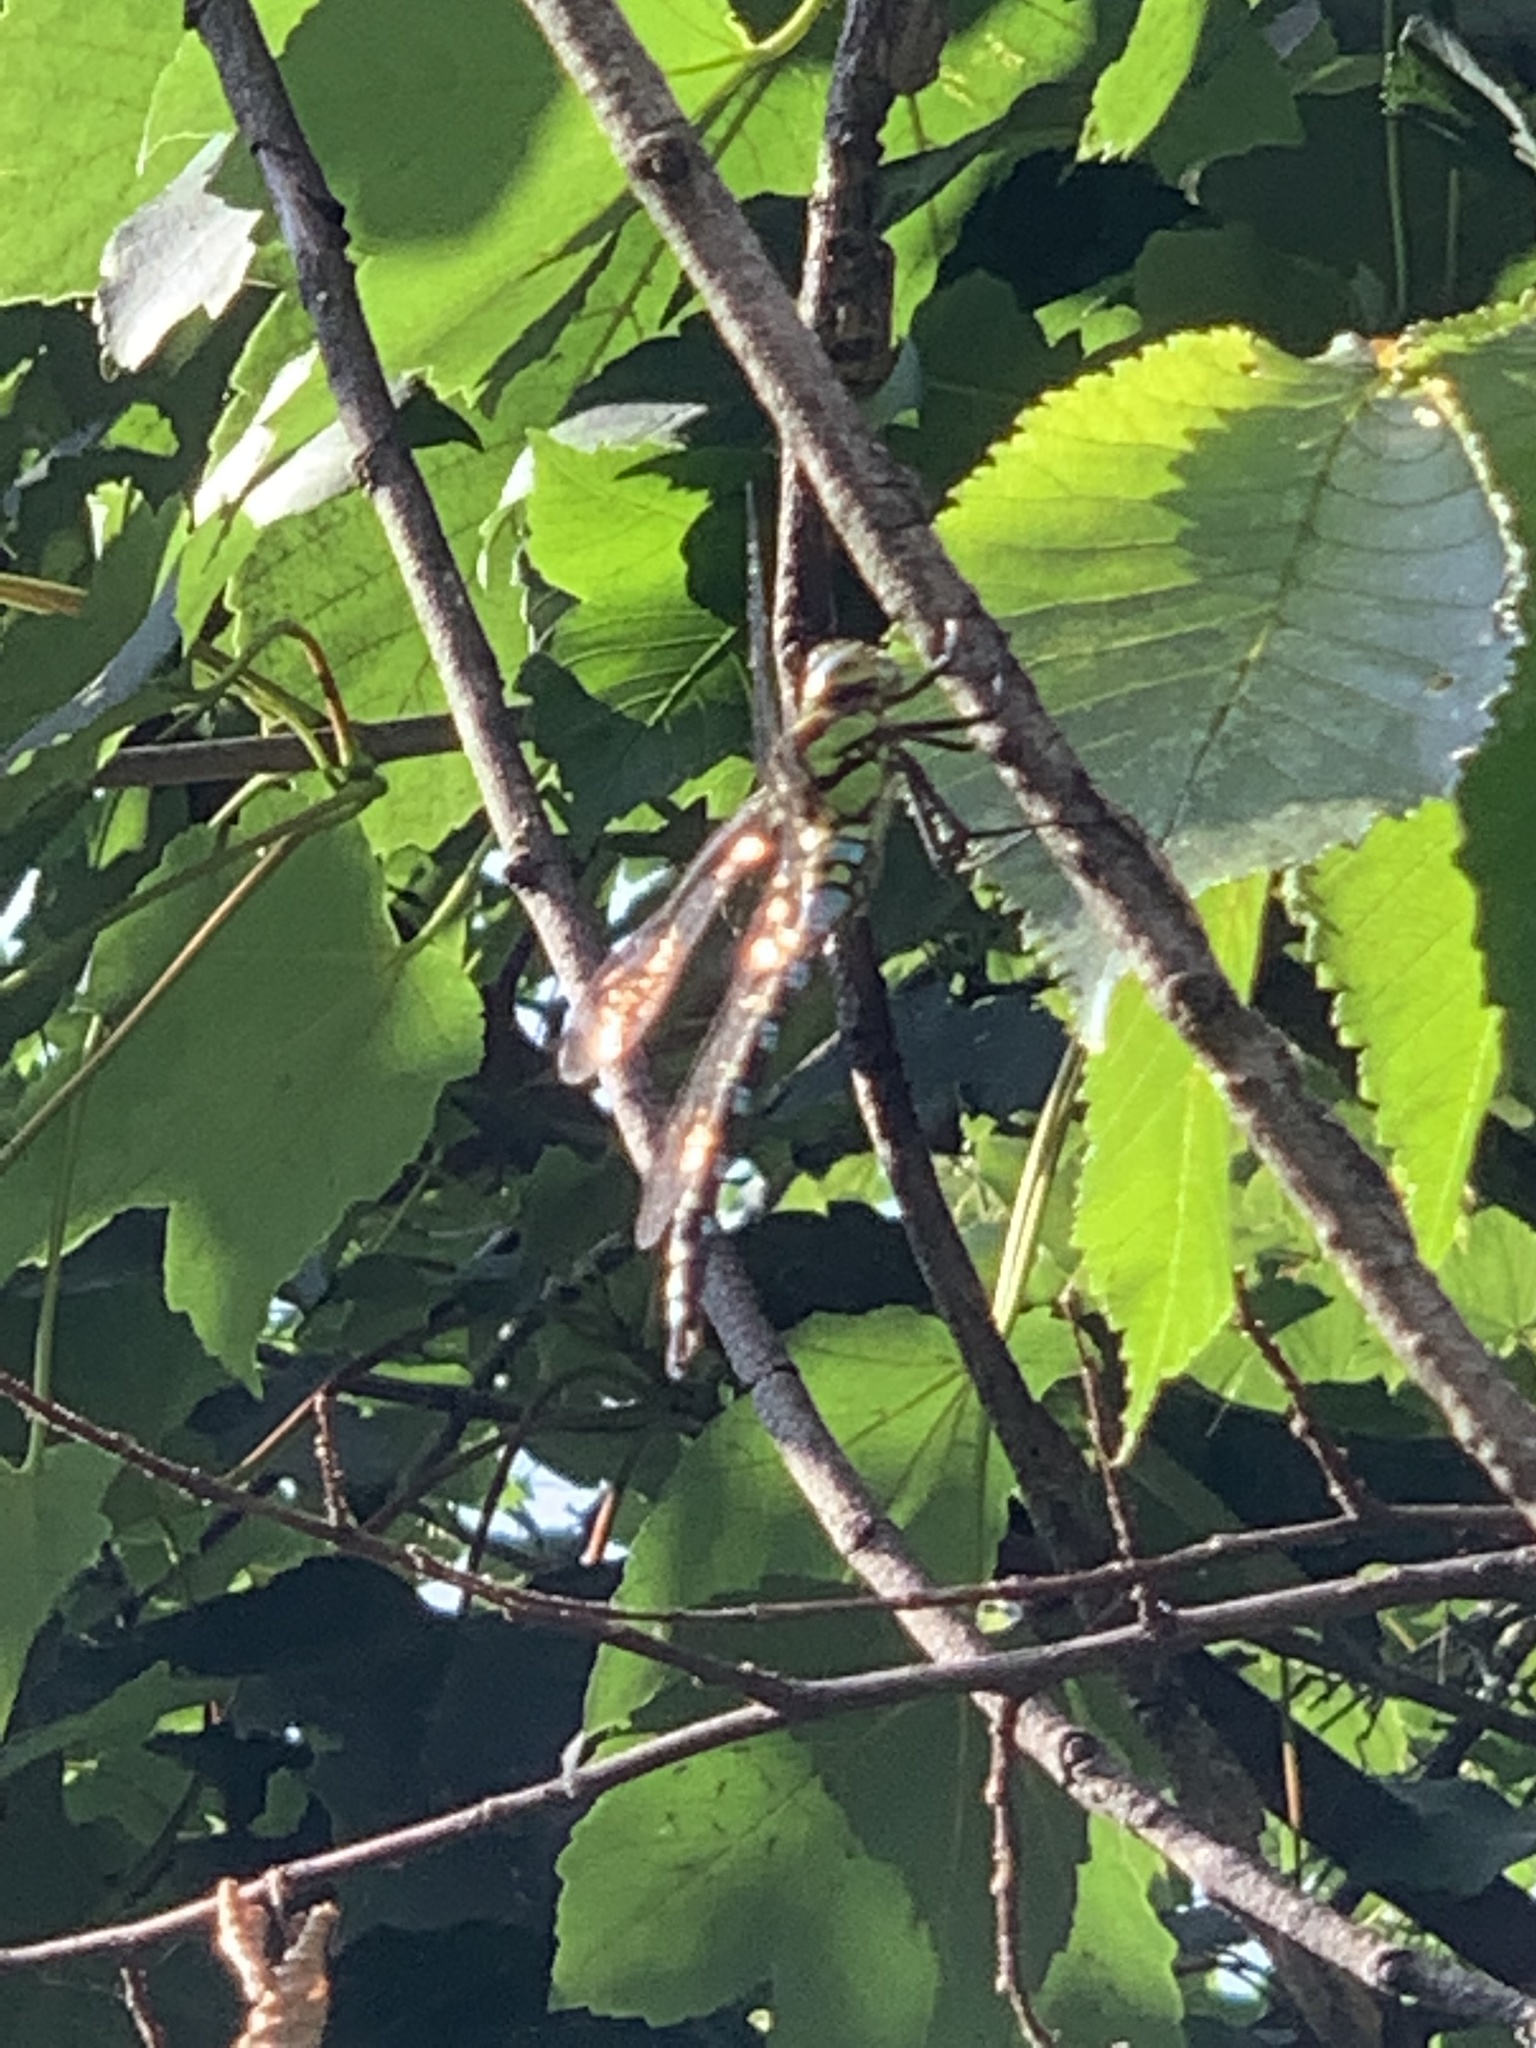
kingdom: Animalia
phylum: Arthropoda
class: Insecta
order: Odonata
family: Aeshnidae
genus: Aeshna
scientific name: Aeshna cyanea
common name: Southern hawker
